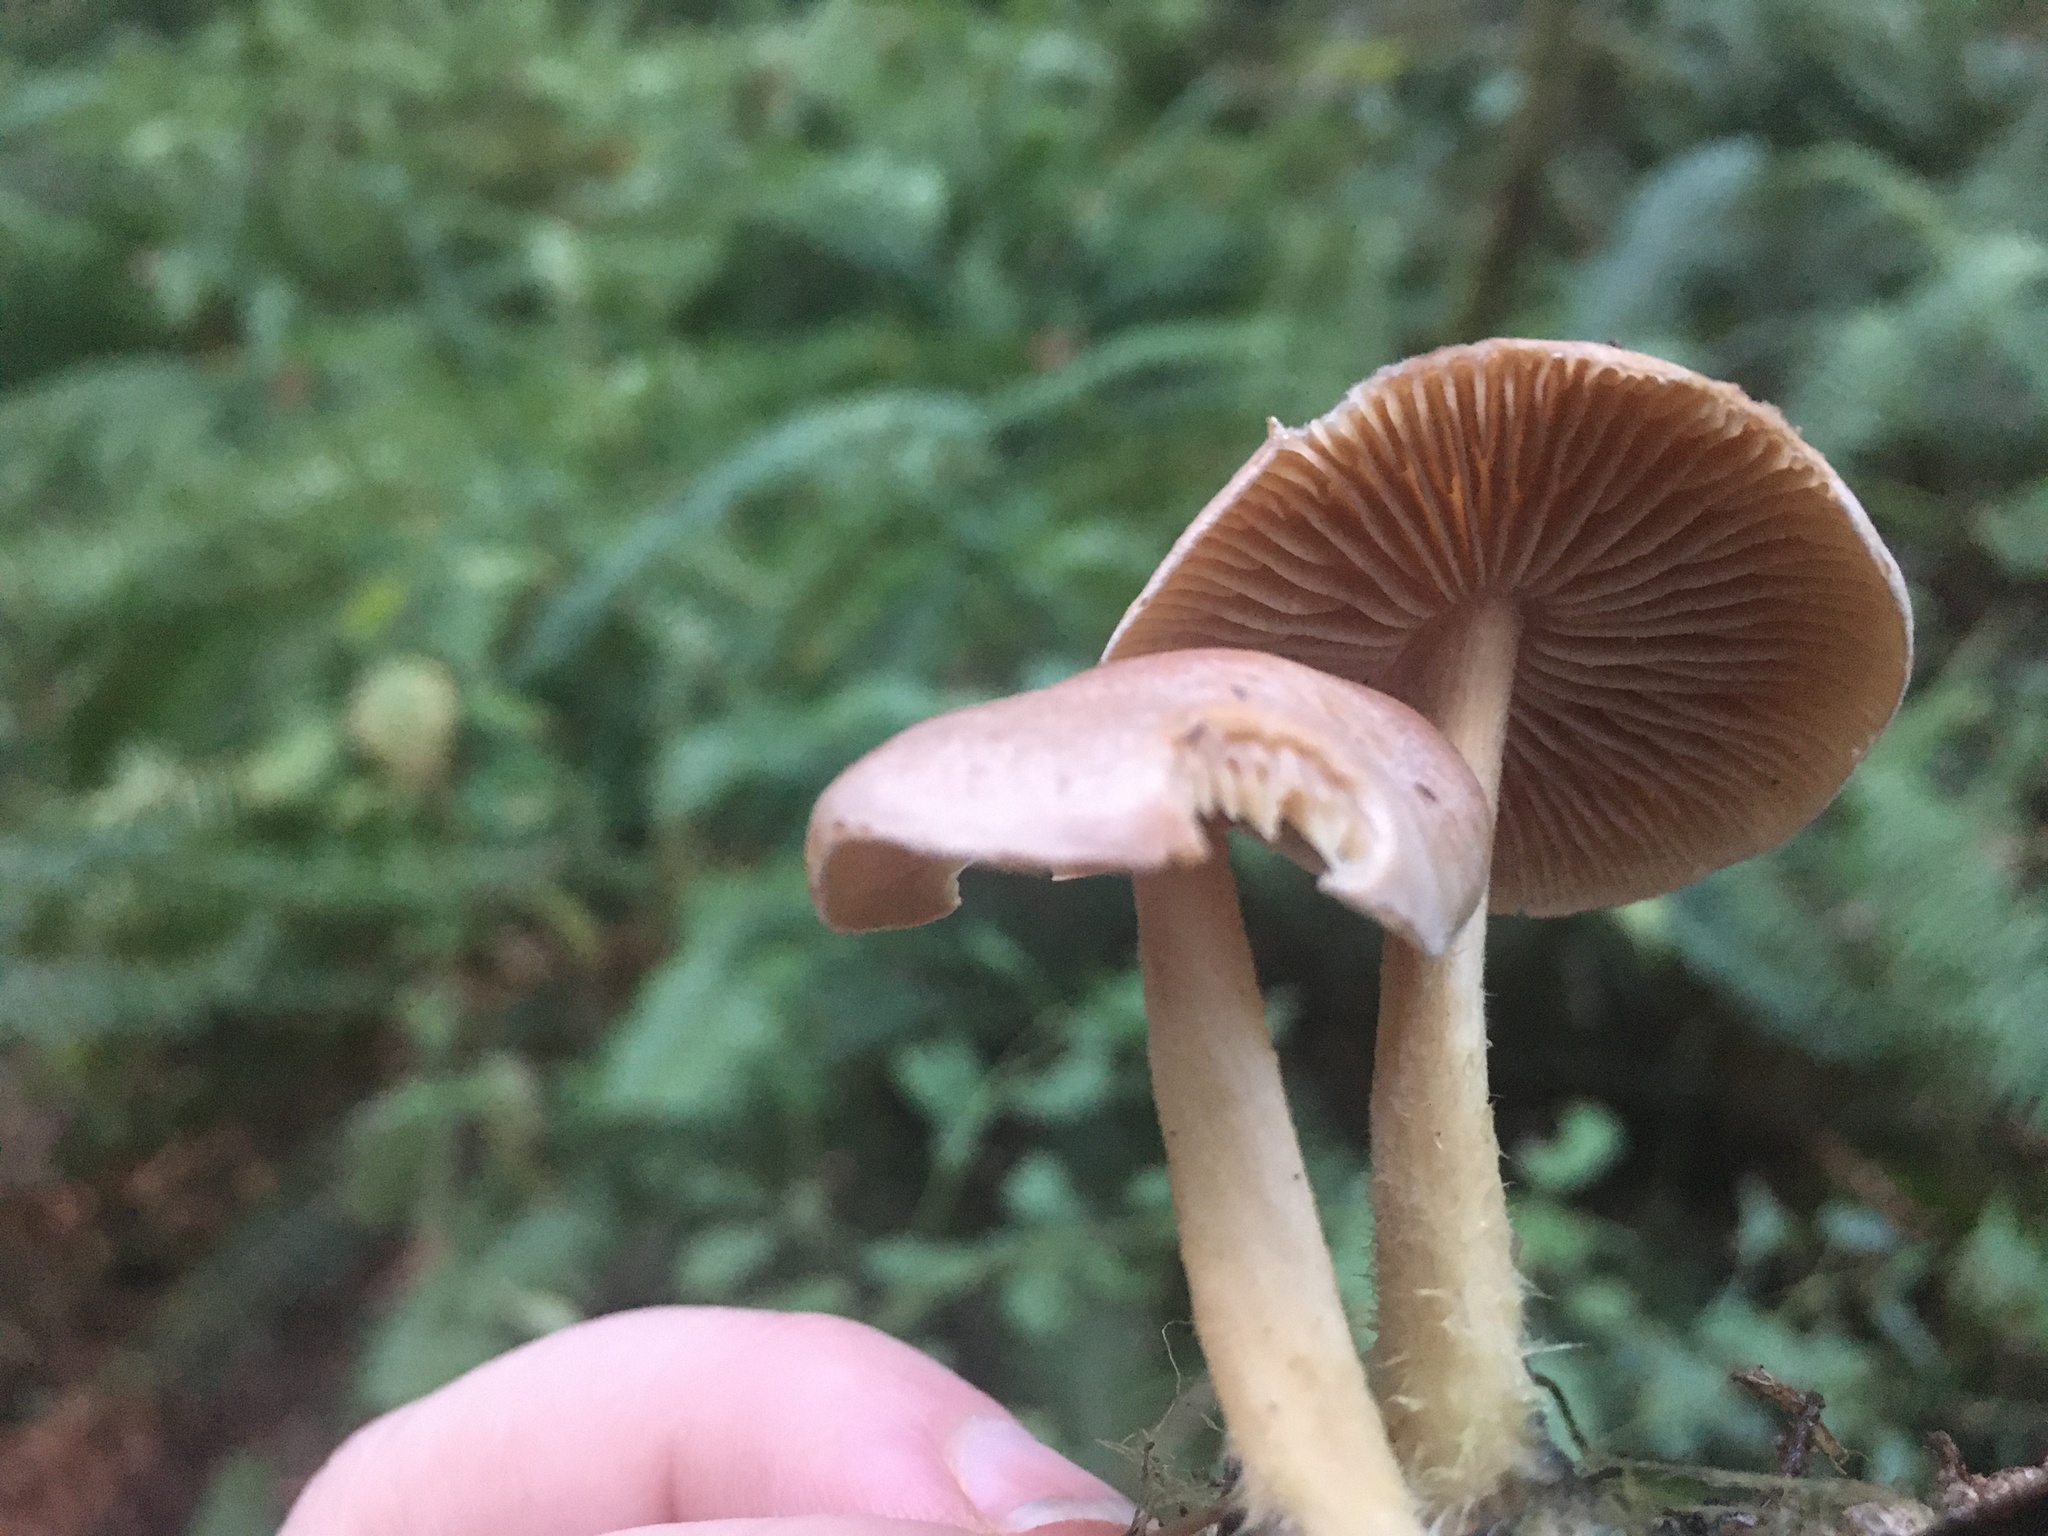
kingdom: Fungi
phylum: Basidiomycota
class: Agaricomycetes
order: Agaricales
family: Omphalotaceae
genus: Collybiopsis
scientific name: Collybiopsis peronata
